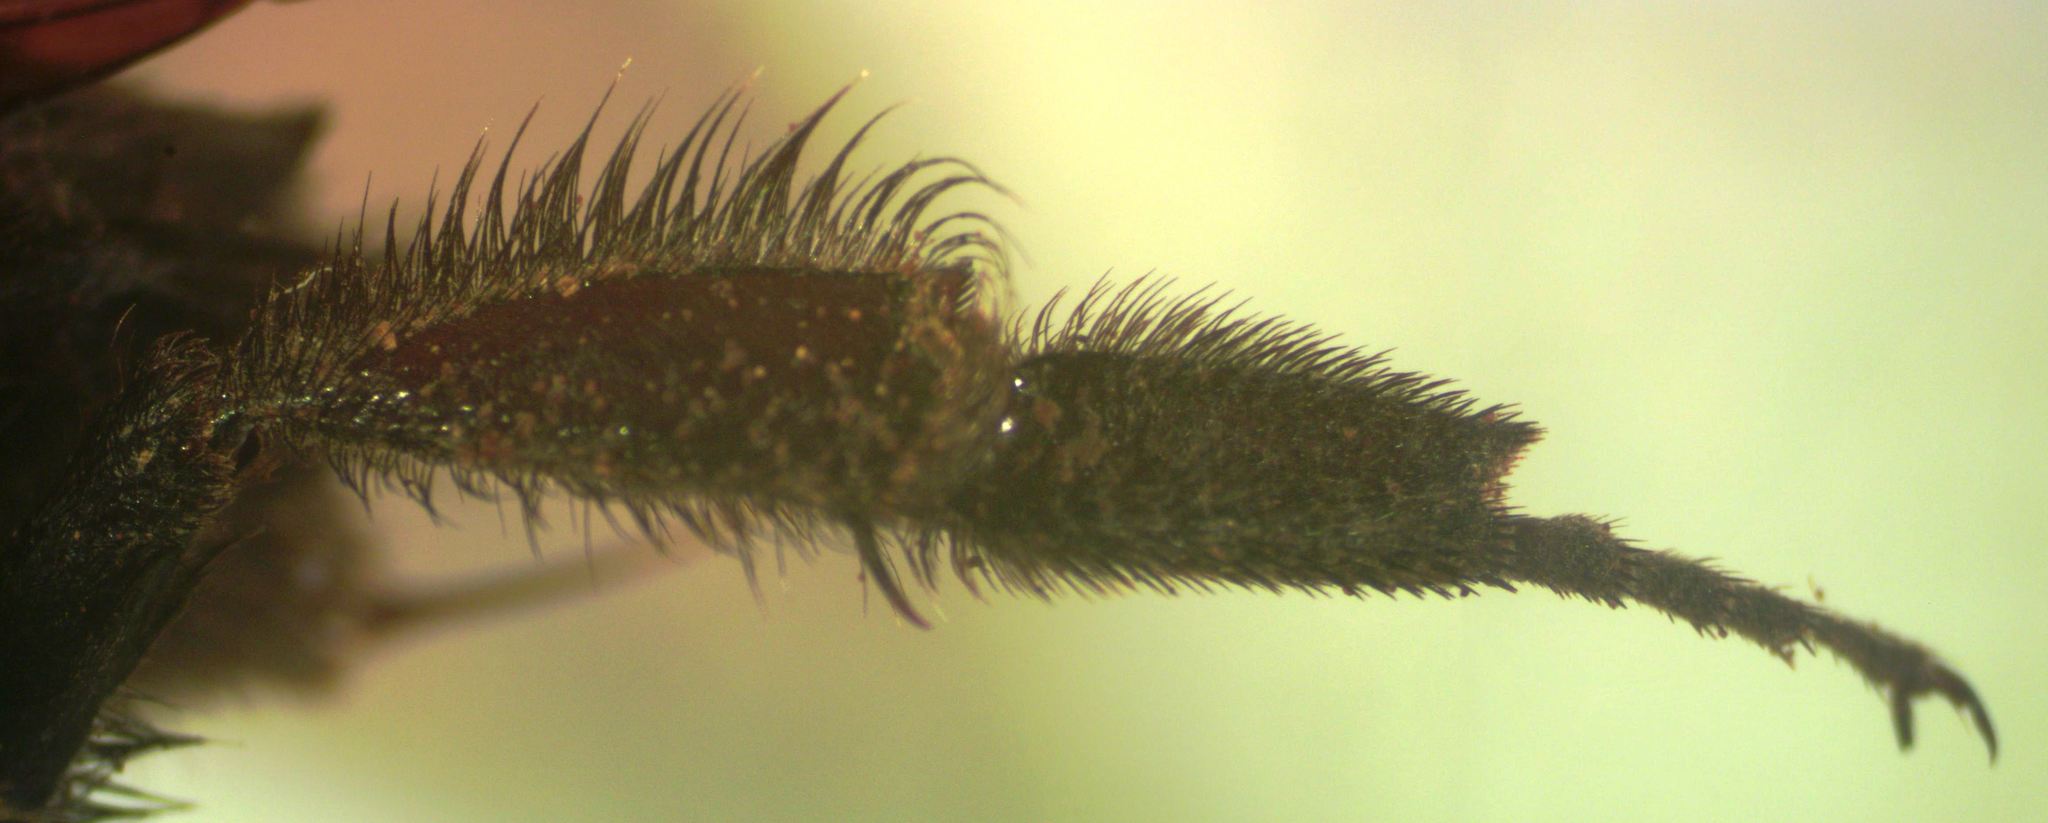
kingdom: Animalia
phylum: Arthropoda
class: Insecta
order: Hymenoptera
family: Apidae
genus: Bombus
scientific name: Bombus pullatus
